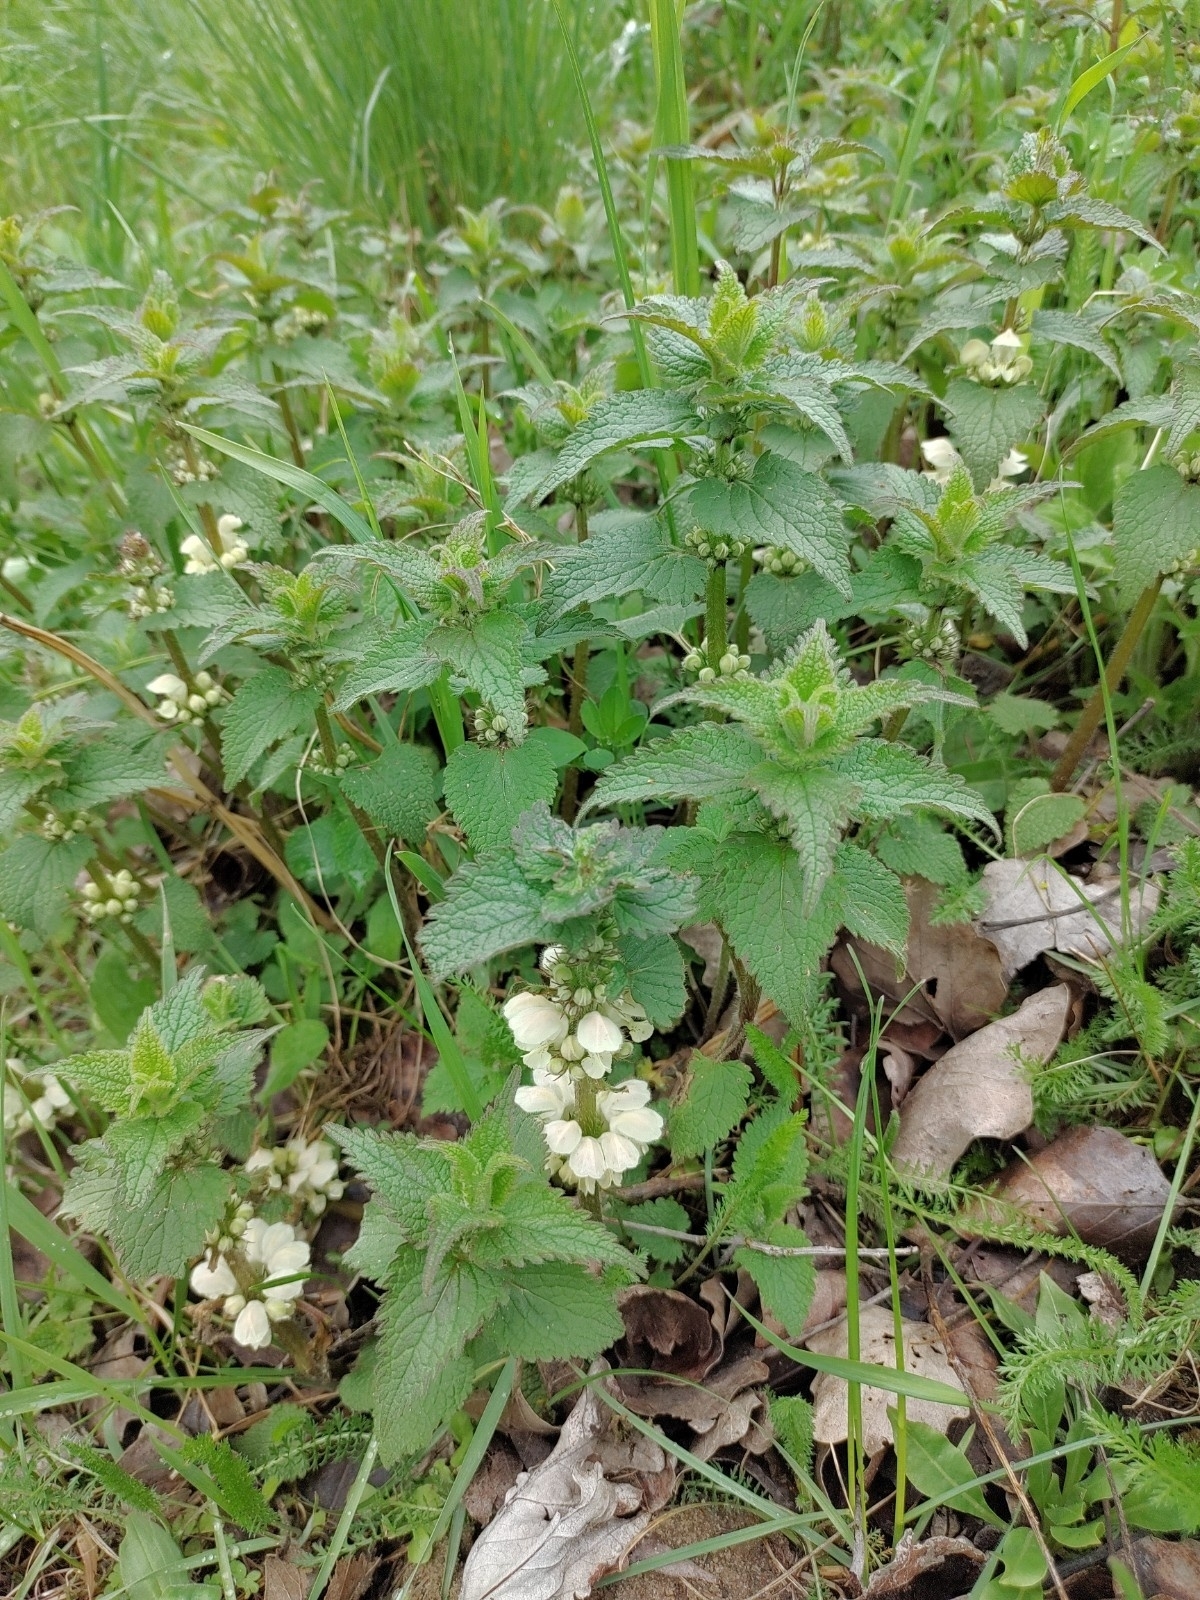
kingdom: Plantae
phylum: Tracheophyta
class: Magnoliopsida
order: Lamiales
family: Lamiaceae
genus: Lamium
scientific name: Lamium album
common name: White dead-nettle
